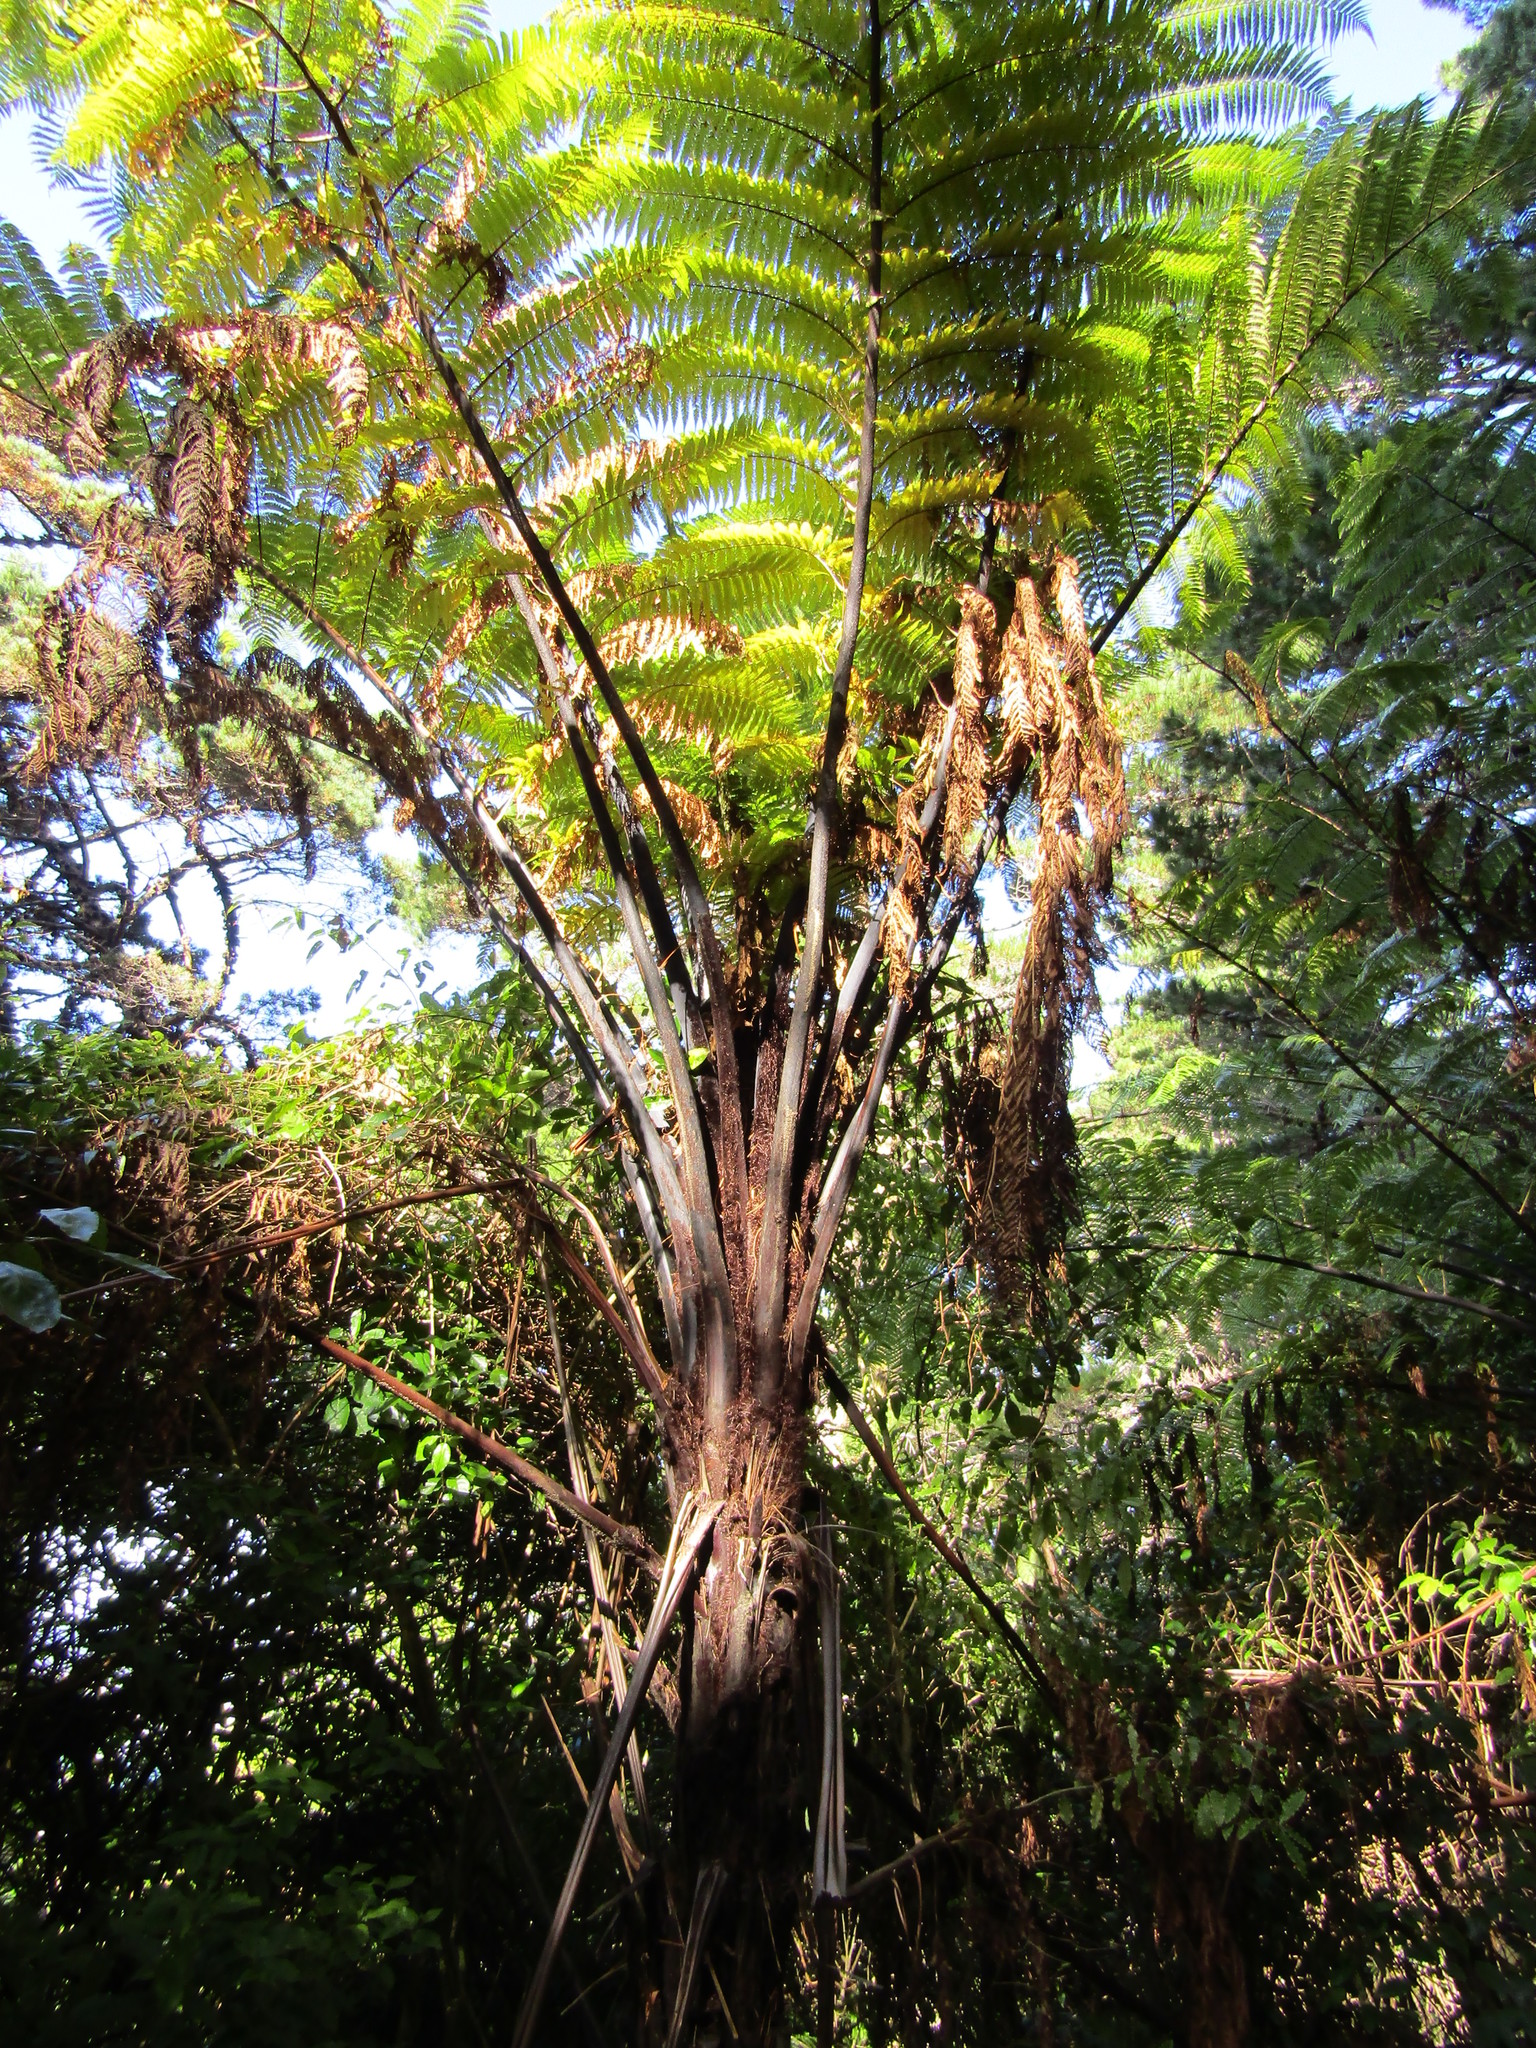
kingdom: Plantae
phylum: Tracheophyta
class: Polypodiopsida
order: Cyatheales
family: Cyatheaceae
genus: Sphaeropteris
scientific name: Sphaeropteris medullaris
